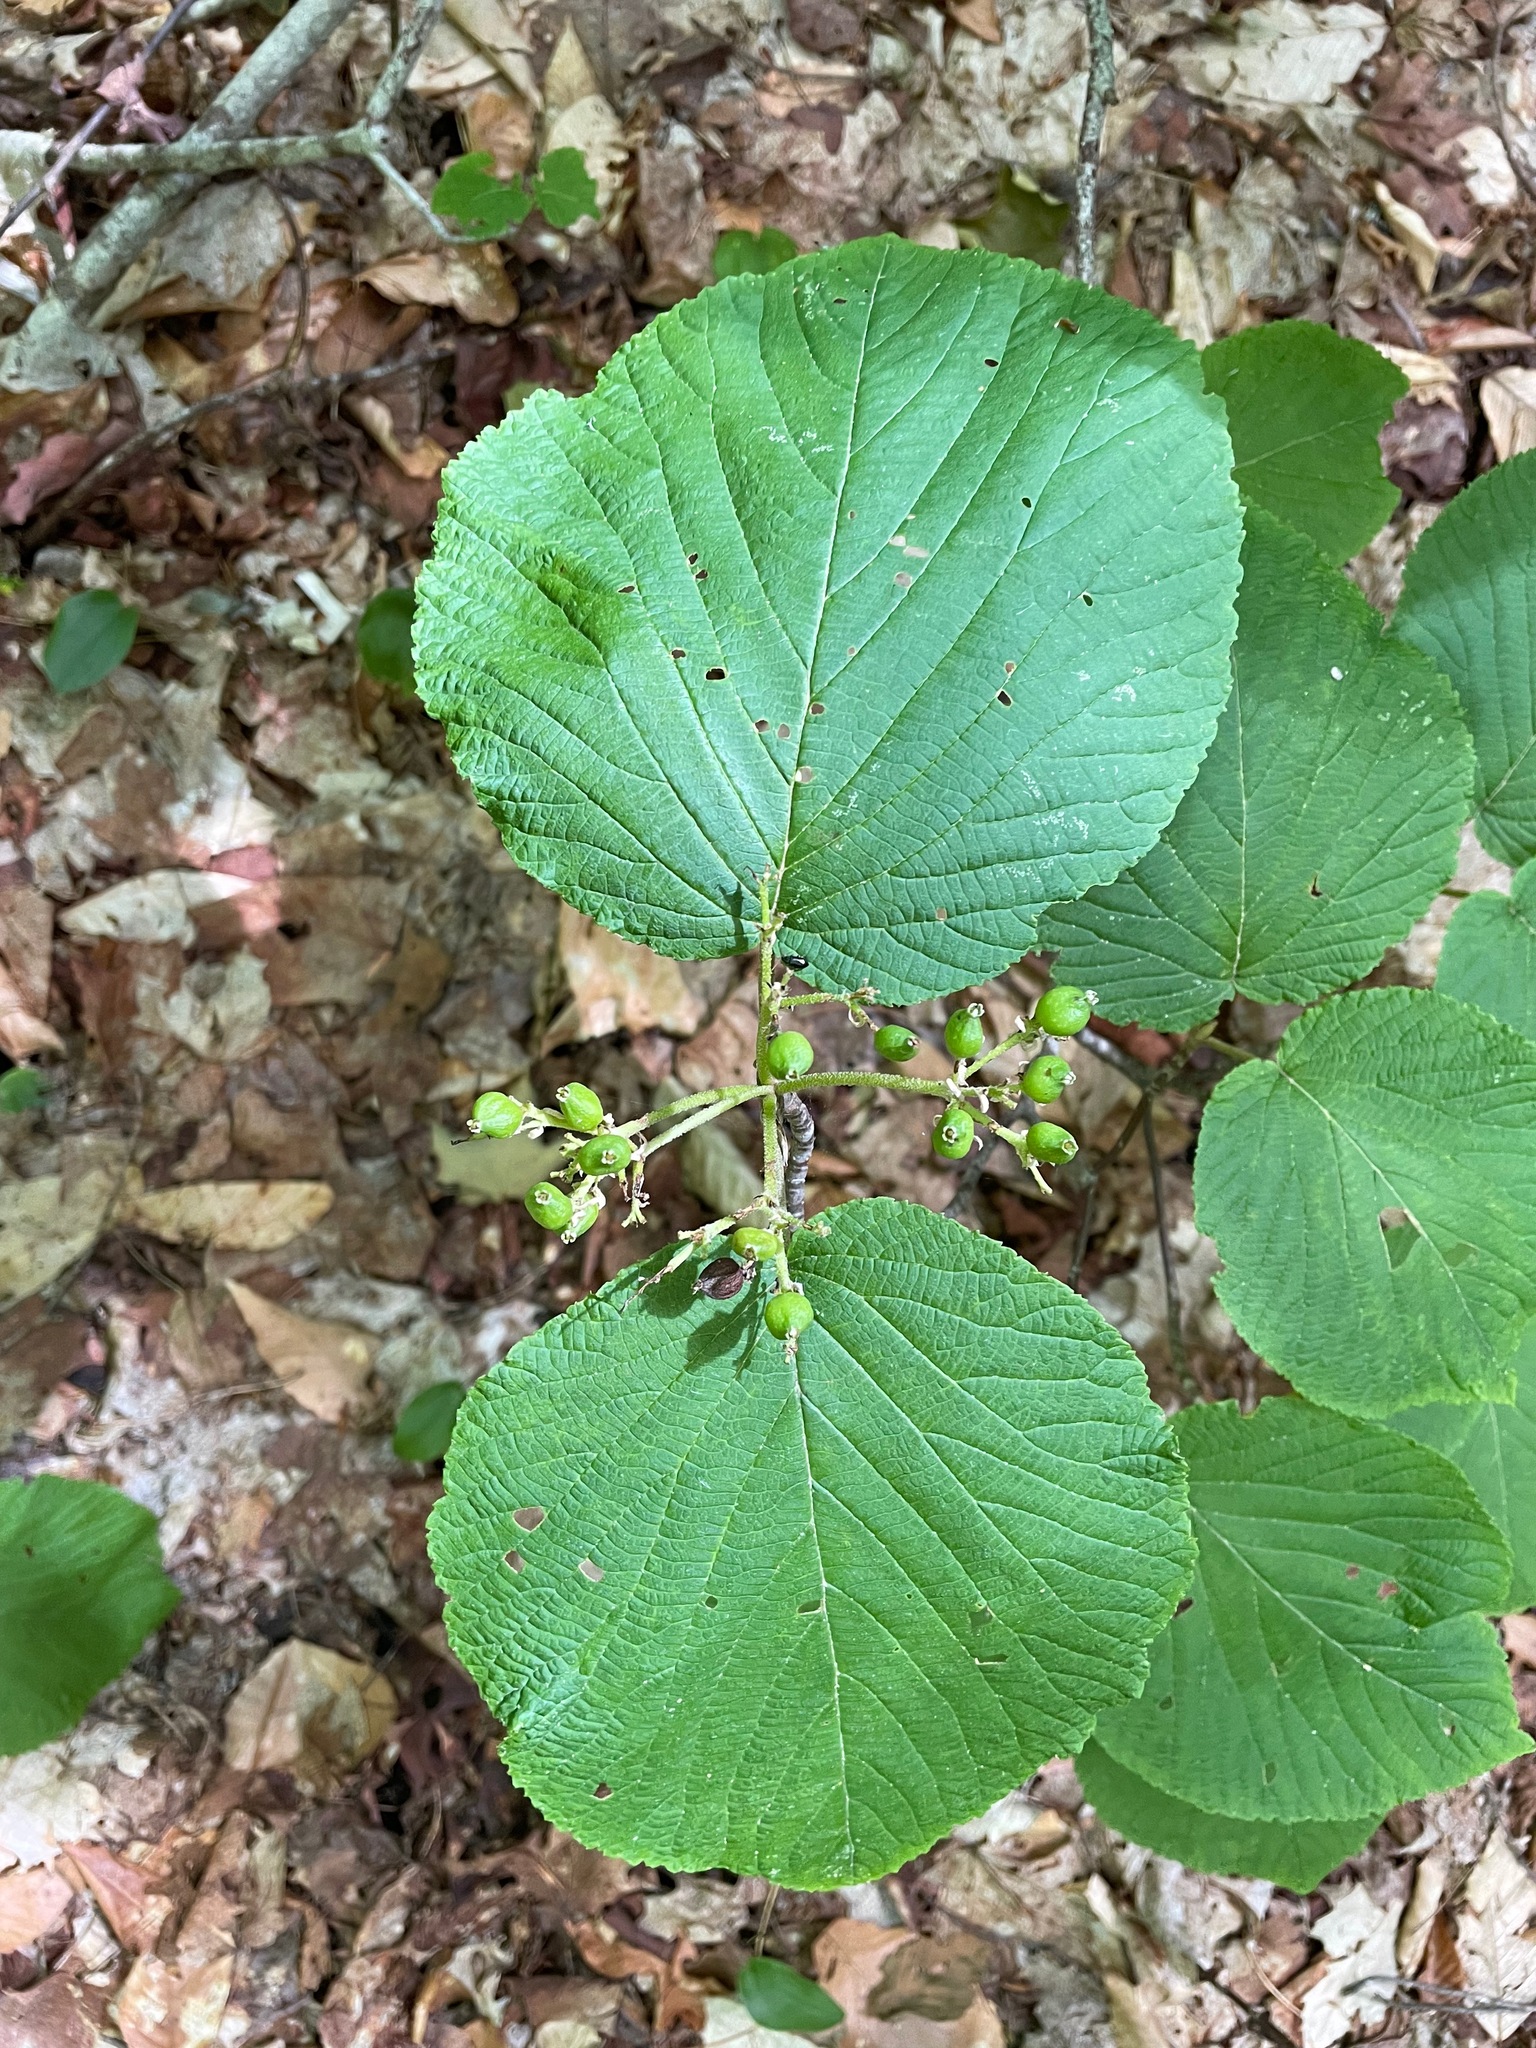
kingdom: Plantae
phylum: Tracheophyta
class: Magnoliopsida
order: Dipsacales
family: Viburnaceae
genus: Viburnum
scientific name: Viburnum lantanoides
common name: Hobblebush
